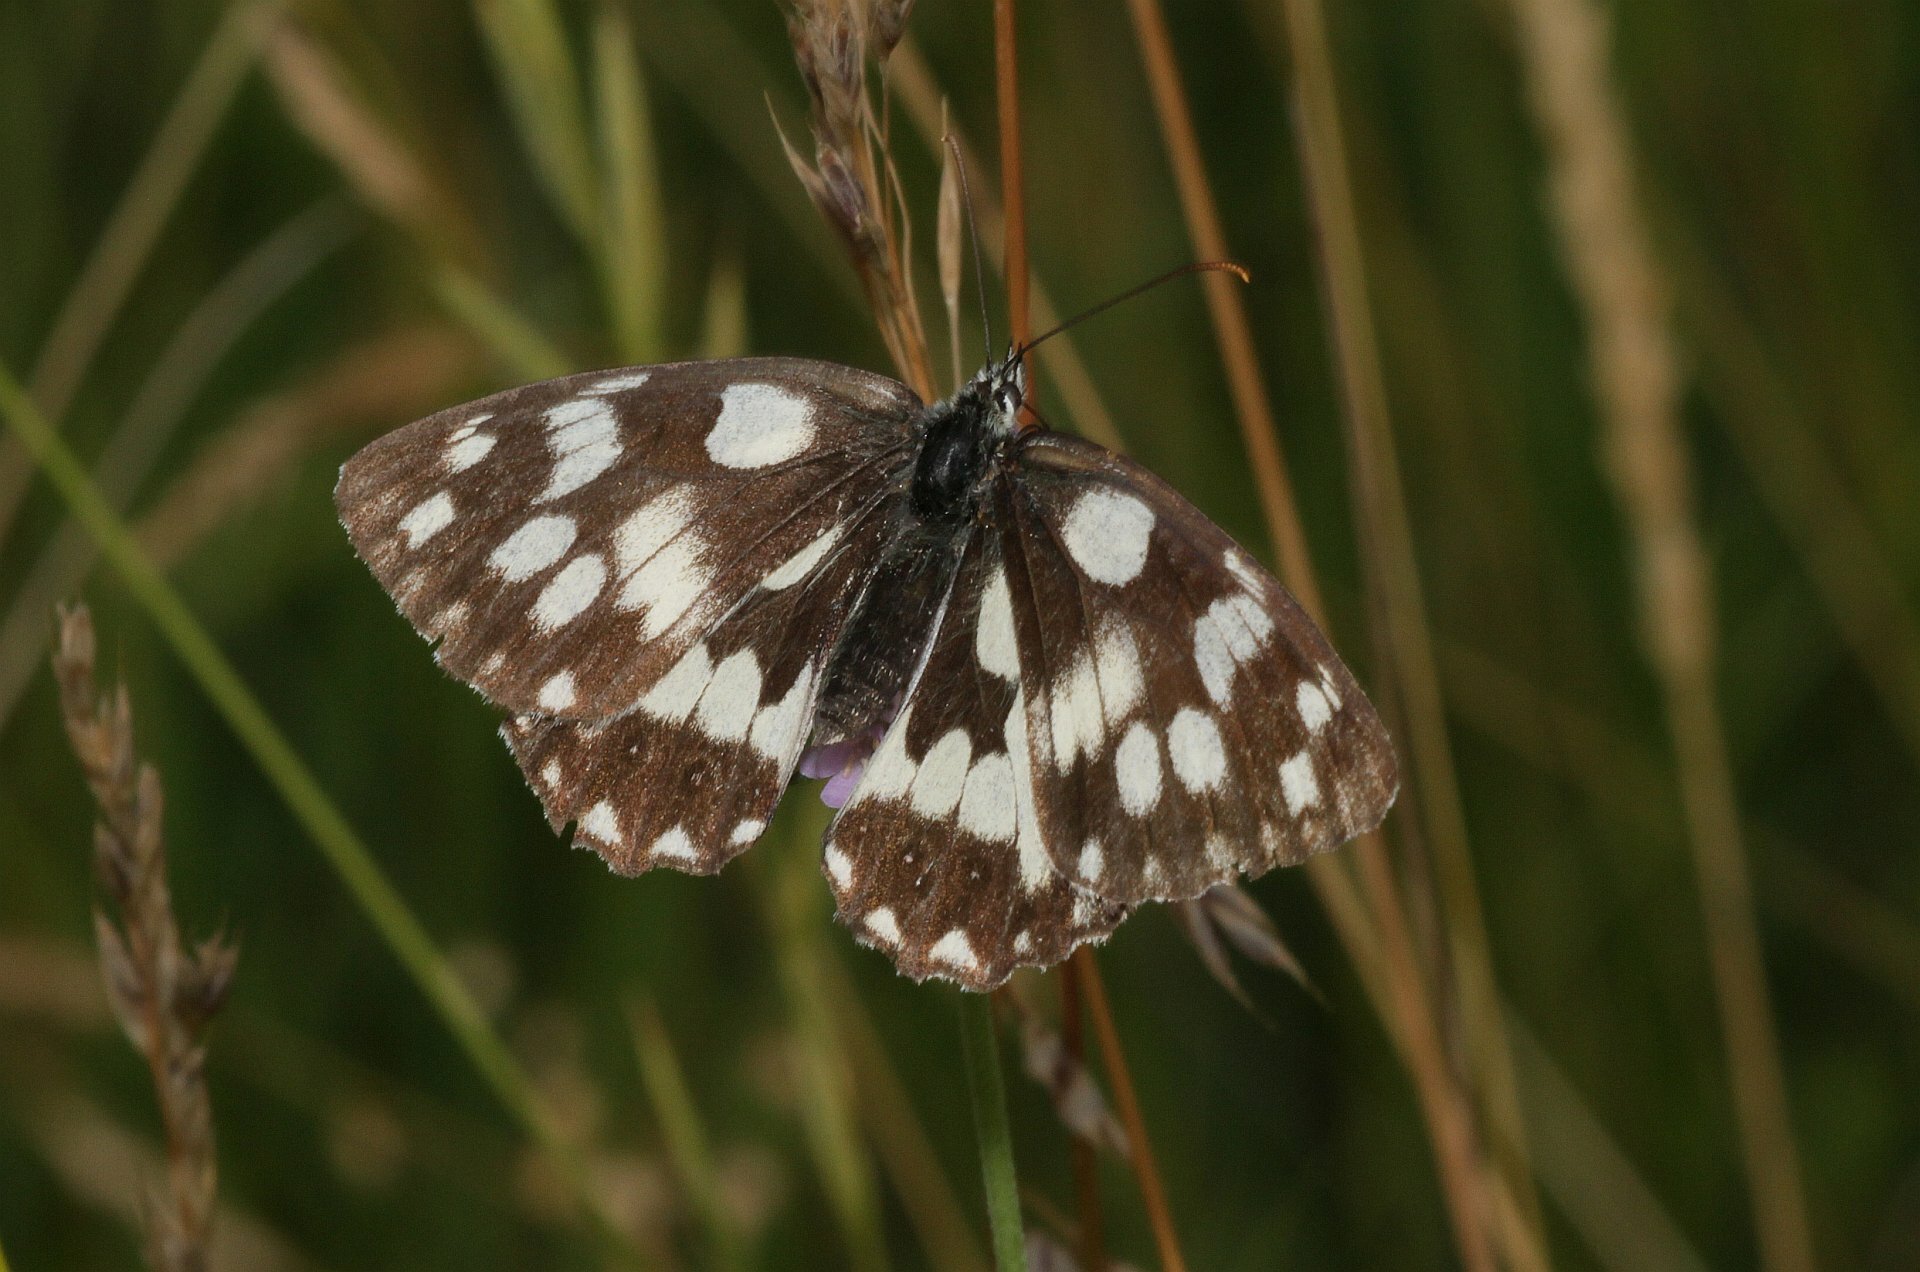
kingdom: Animalia
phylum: Arthropoda
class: Insecta
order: Lepidoptera
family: Nymphalidae
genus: Melanargia
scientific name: Melanargia galathea
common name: Marbled white
